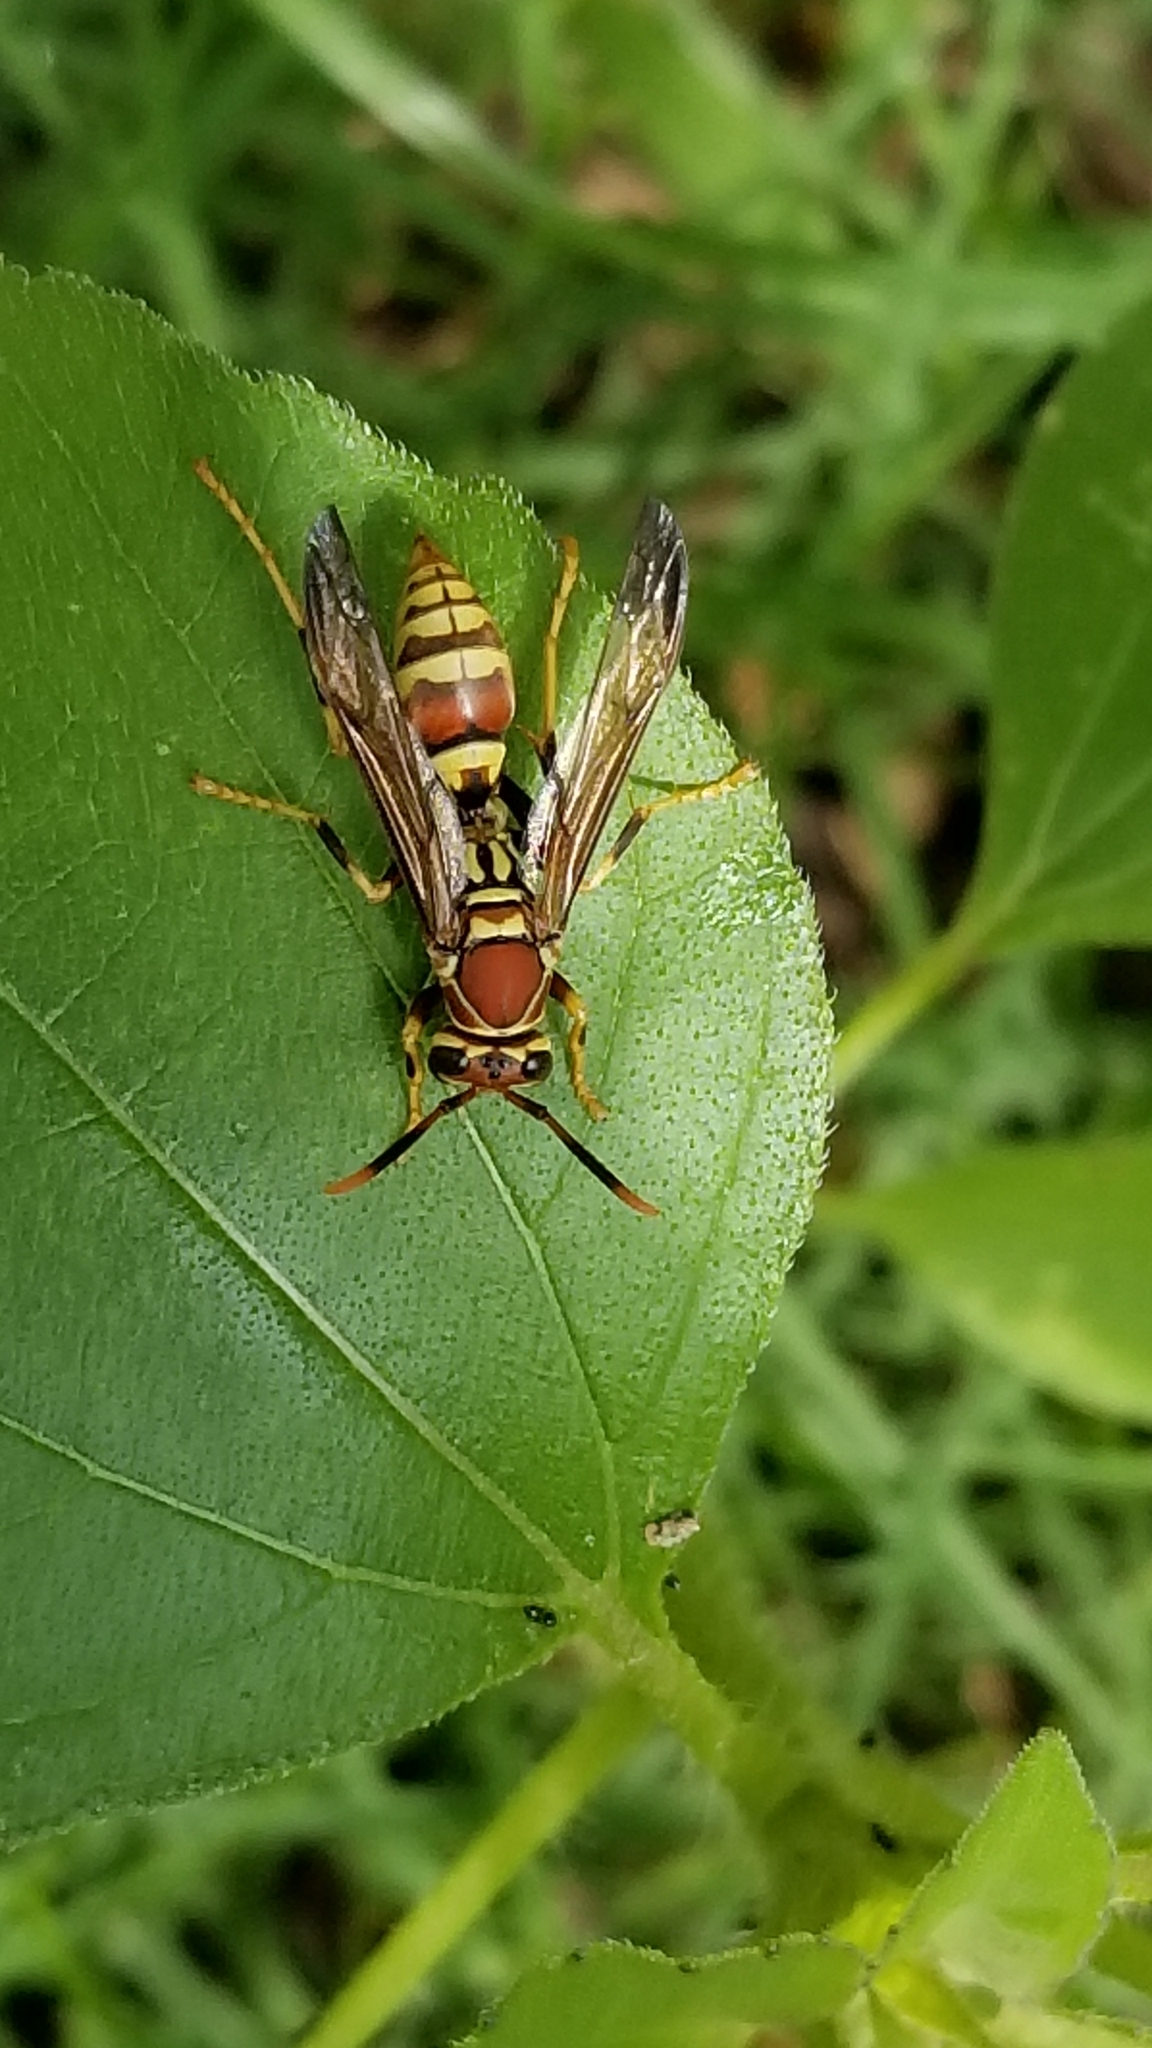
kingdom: Animalia
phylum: Arthropoda
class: Insecta
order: Hymenoptera
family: Eumenidae
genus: Polistes
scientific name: Polistes exclamans
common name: Paper wasp
